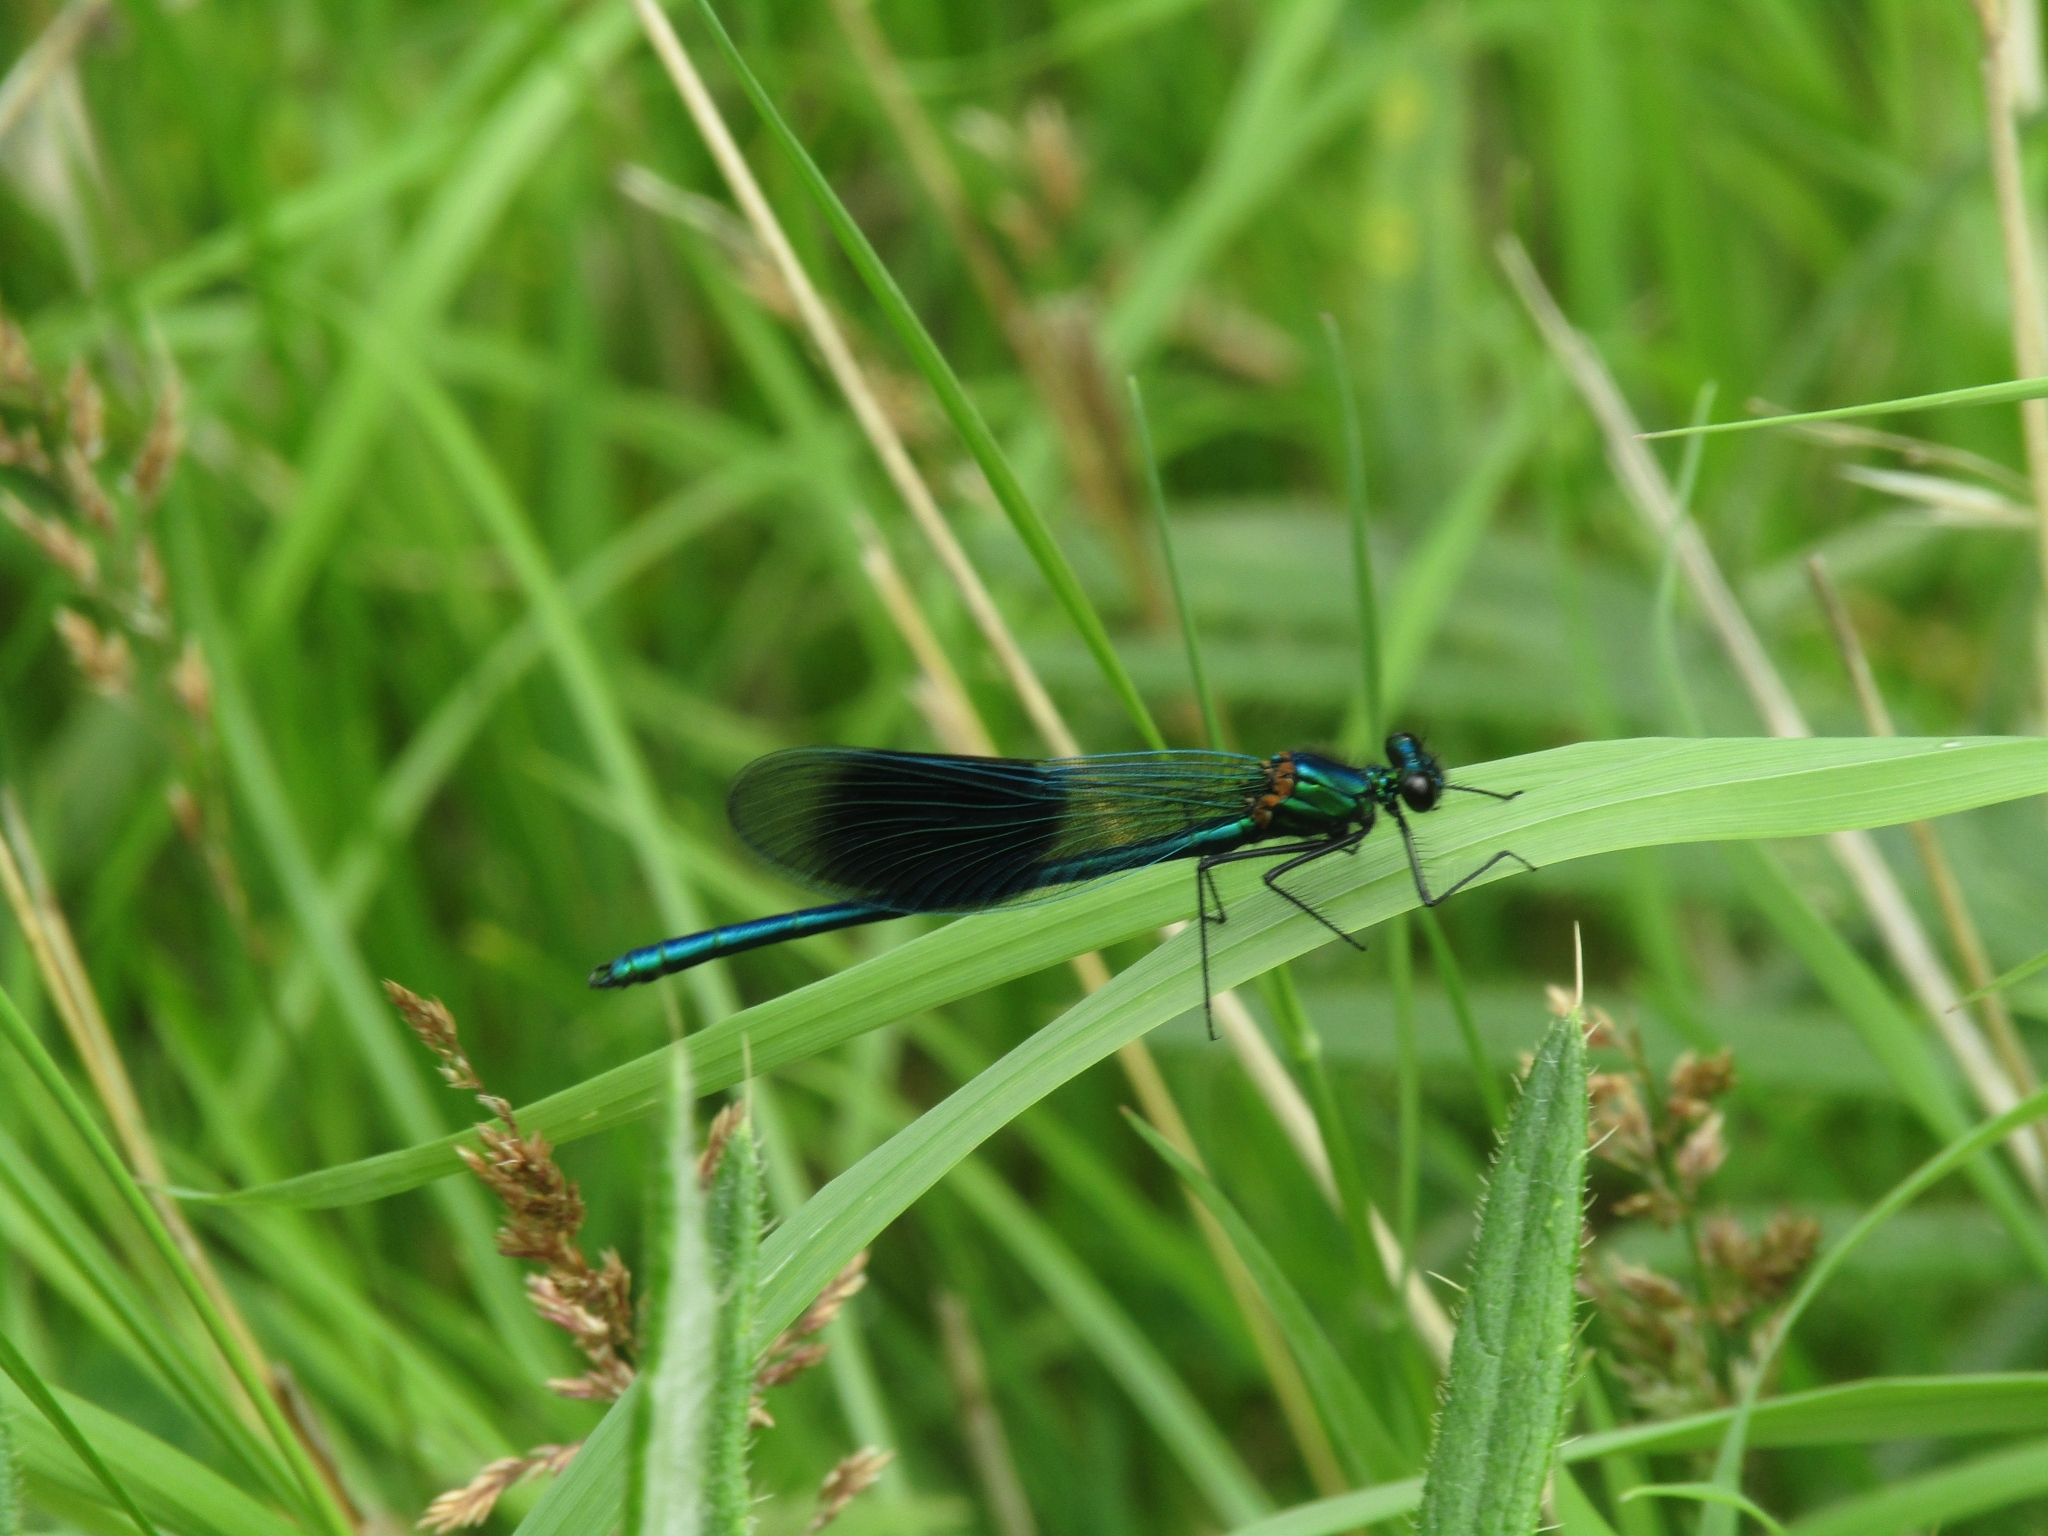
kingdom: Animalia
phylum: Arthropoda
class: Insecta
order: Odonata
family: Calopterygidae
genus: Calopteryx
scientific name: Calopteryx splendens
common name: Banded demoiselle
